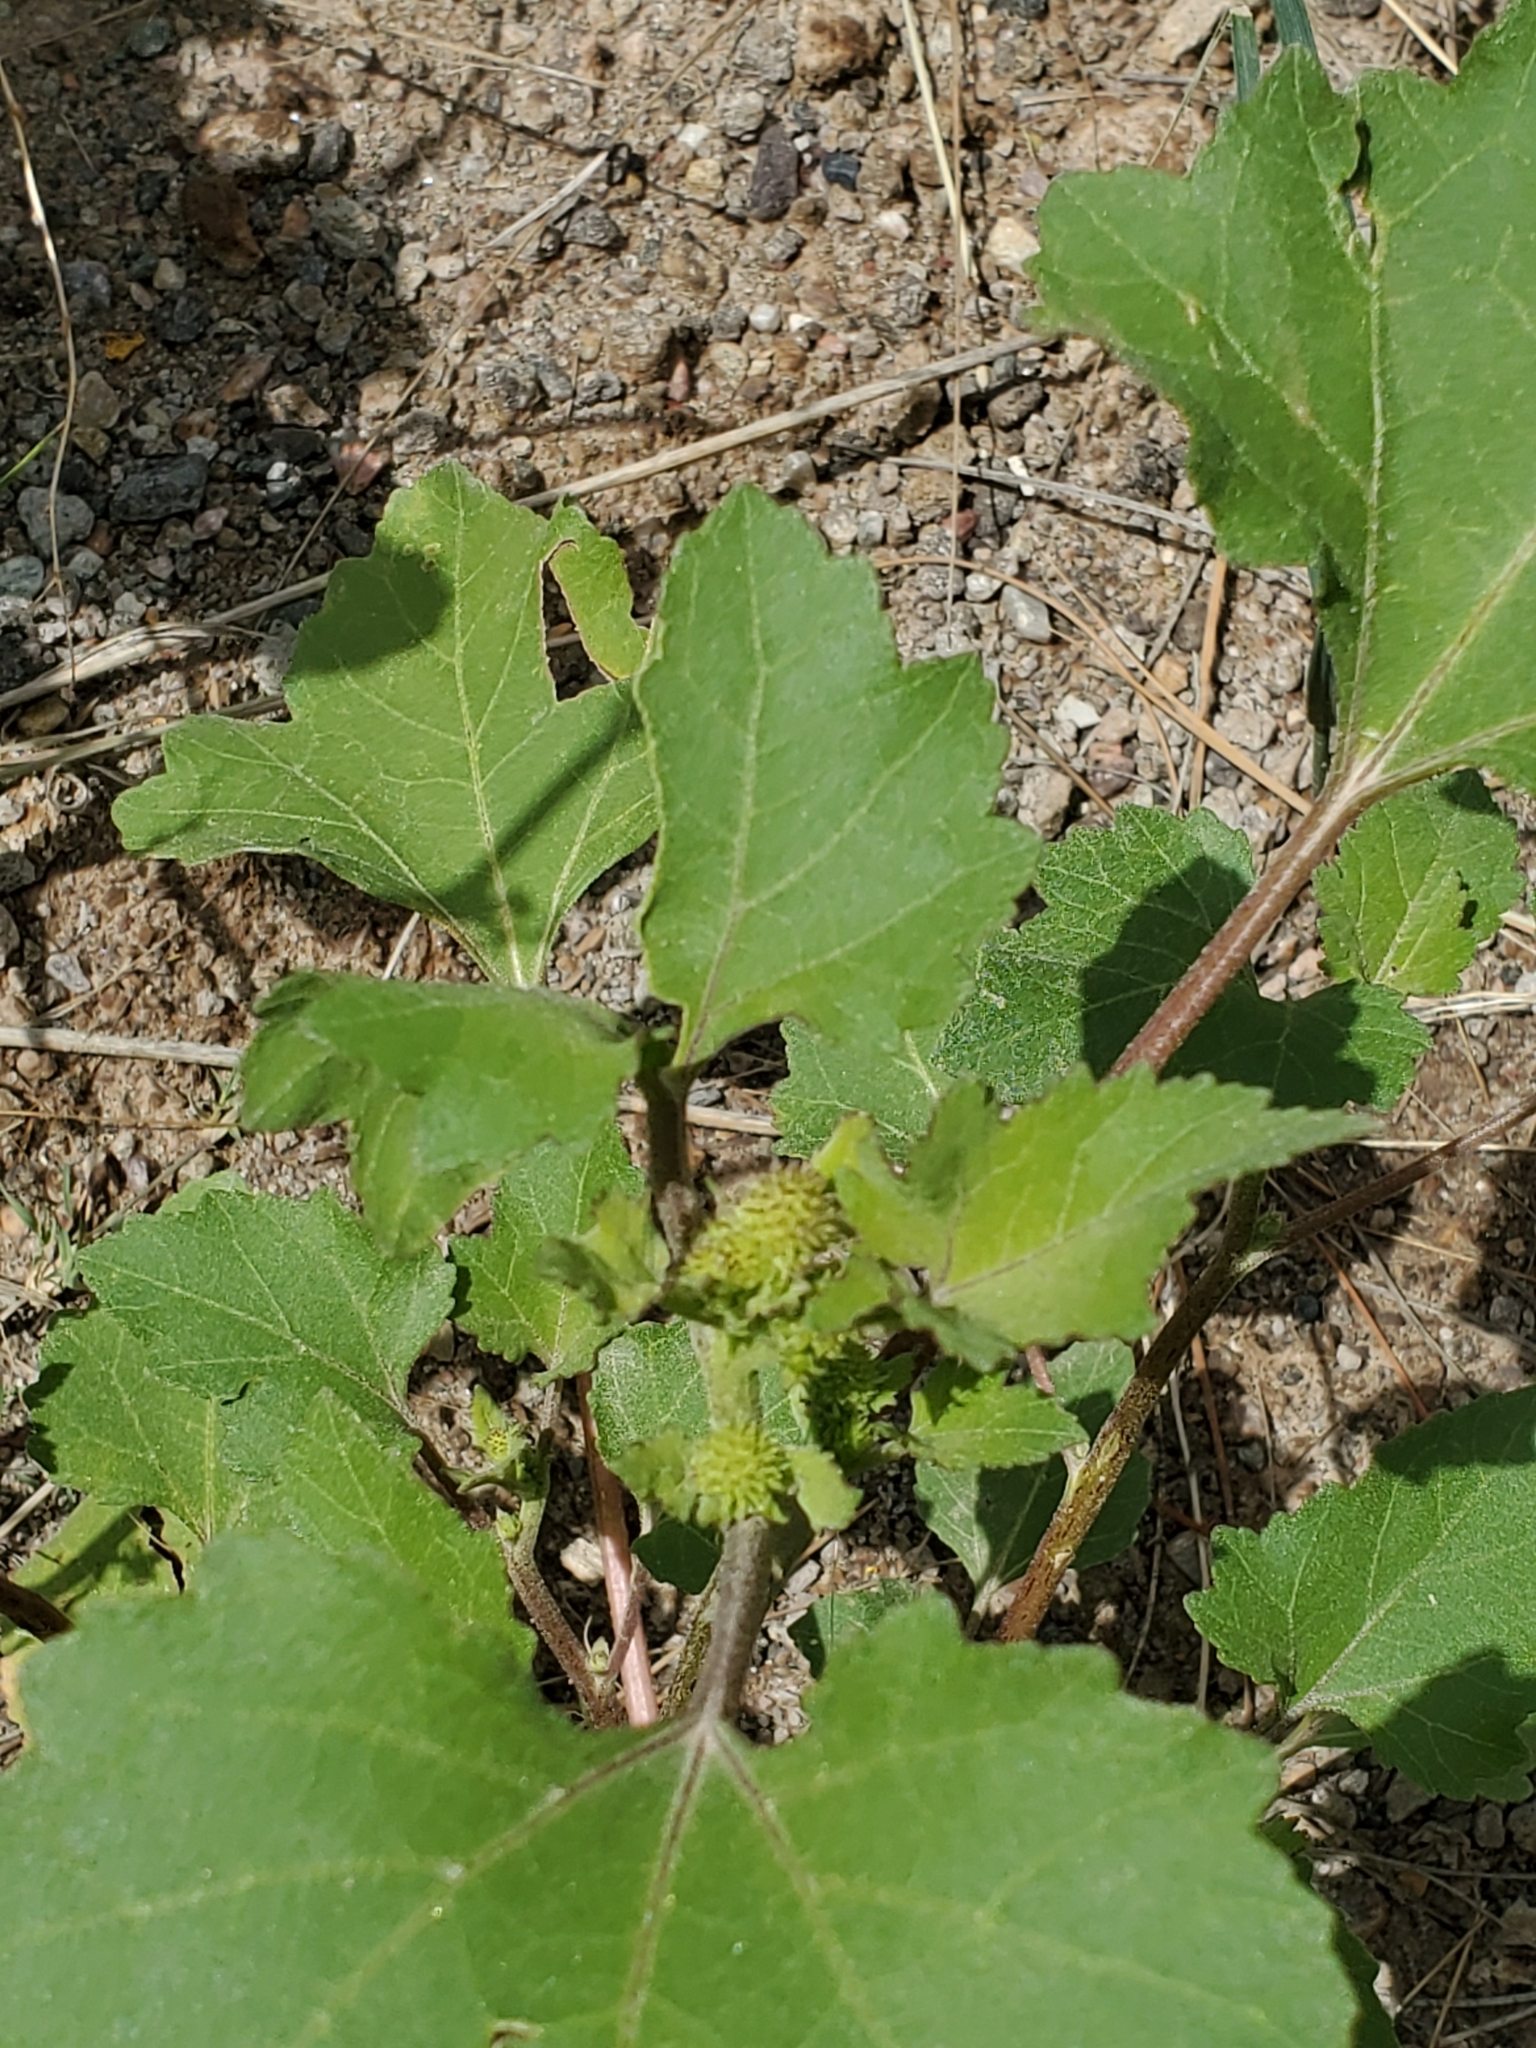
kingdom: Plantae
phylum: Tracheophyta
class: Magnoliopsida
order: Asterales
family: Asteraceae
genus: Xanthium
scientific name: Xanthium strumarium
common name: Rough cocklebur
